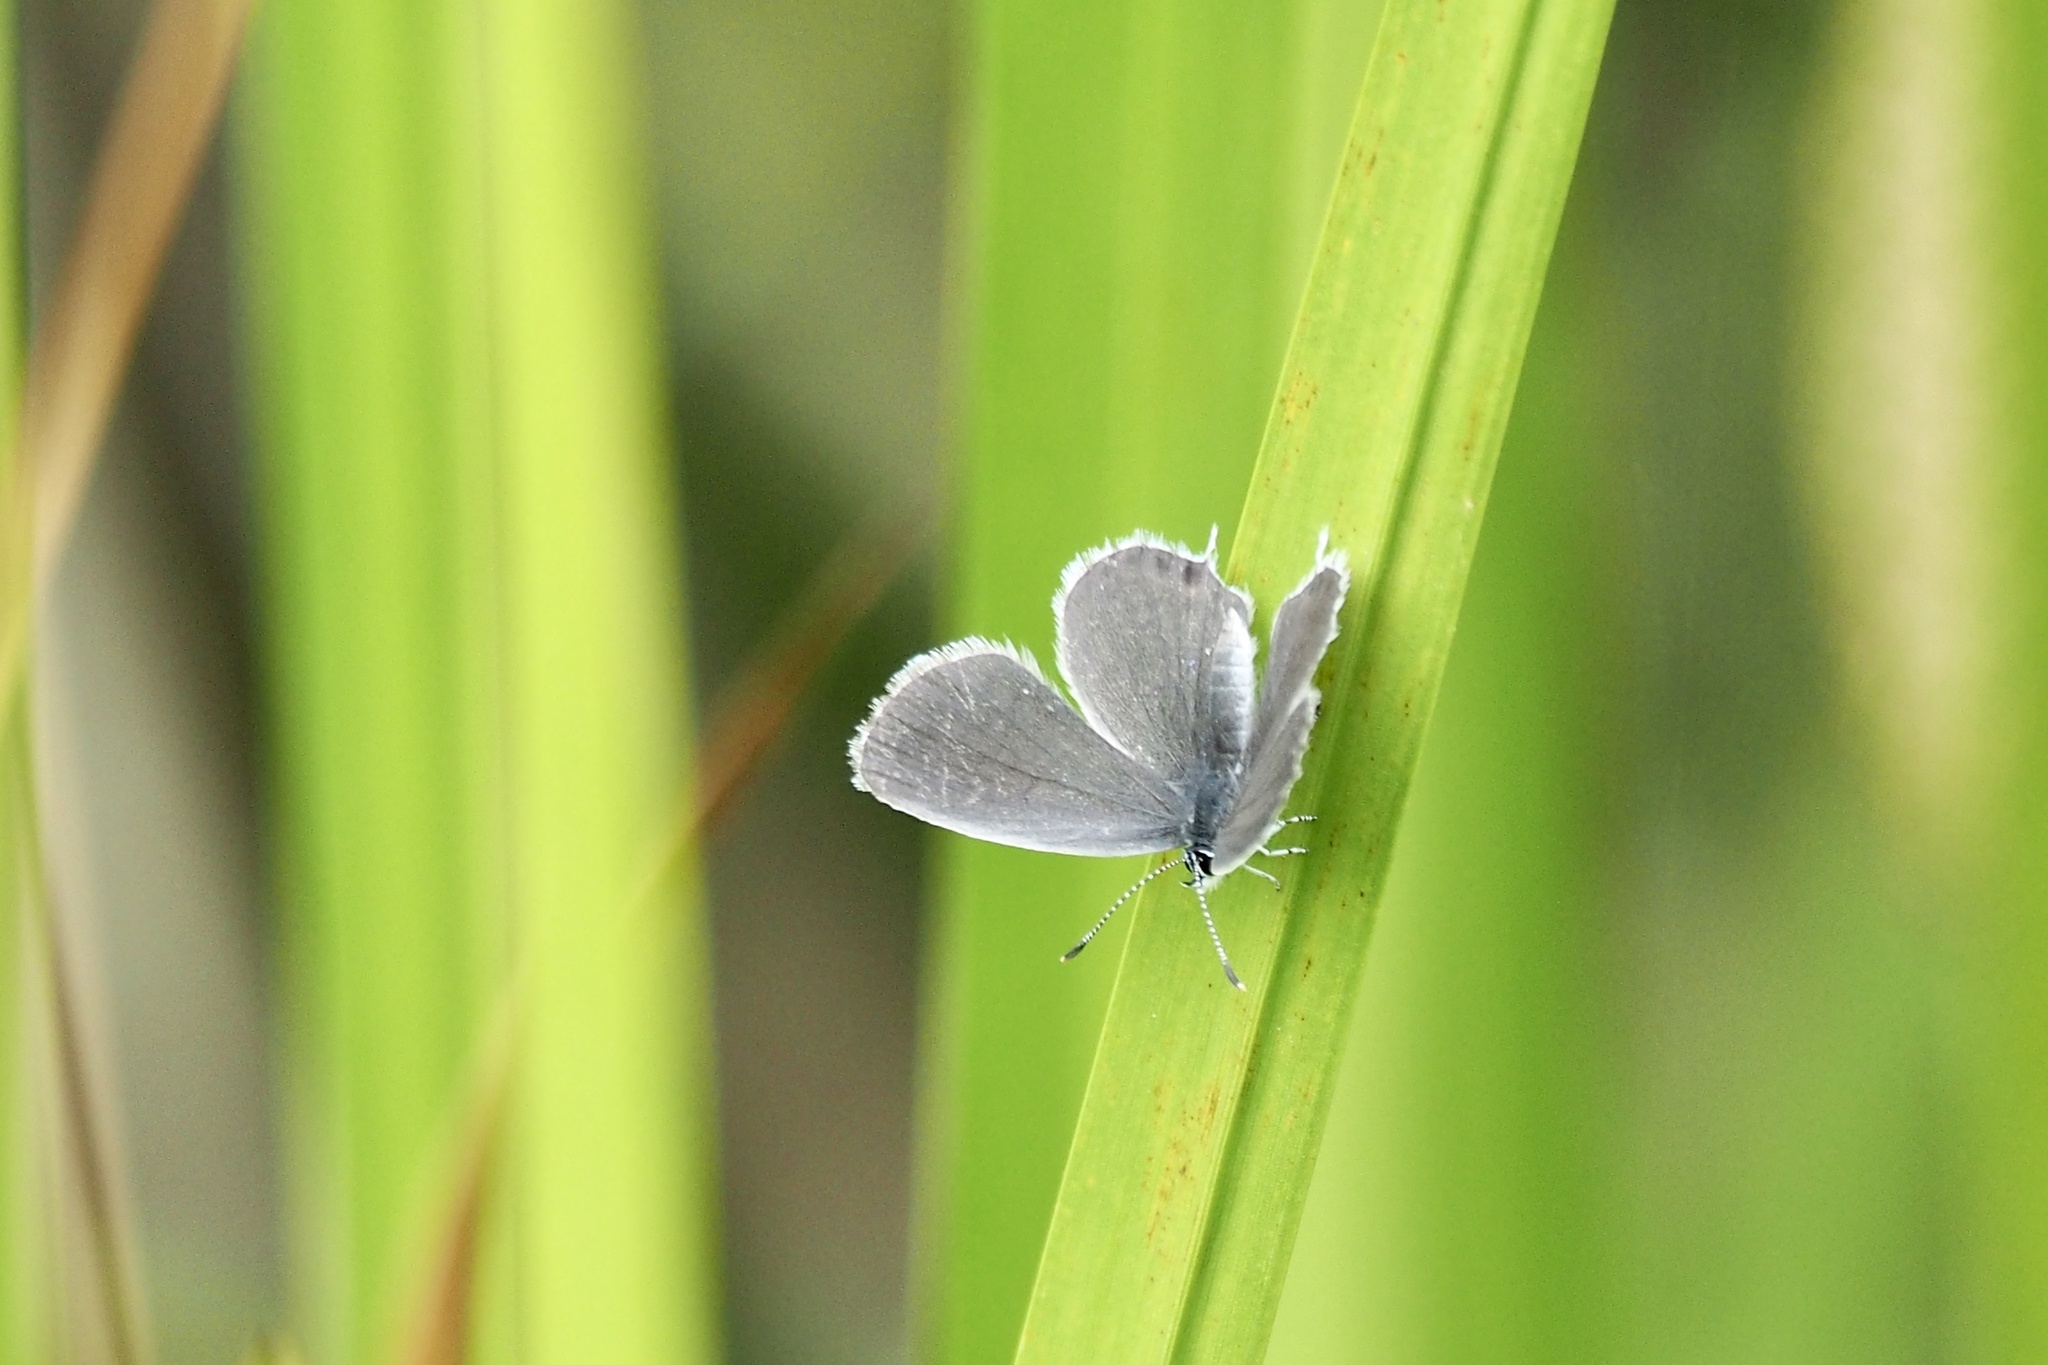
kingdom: Animalia
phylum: Arthropoda
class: Insecta
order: Lepidoptera
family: Lycaenidae
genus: Elkalyce
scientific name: Elkalyce argiades
